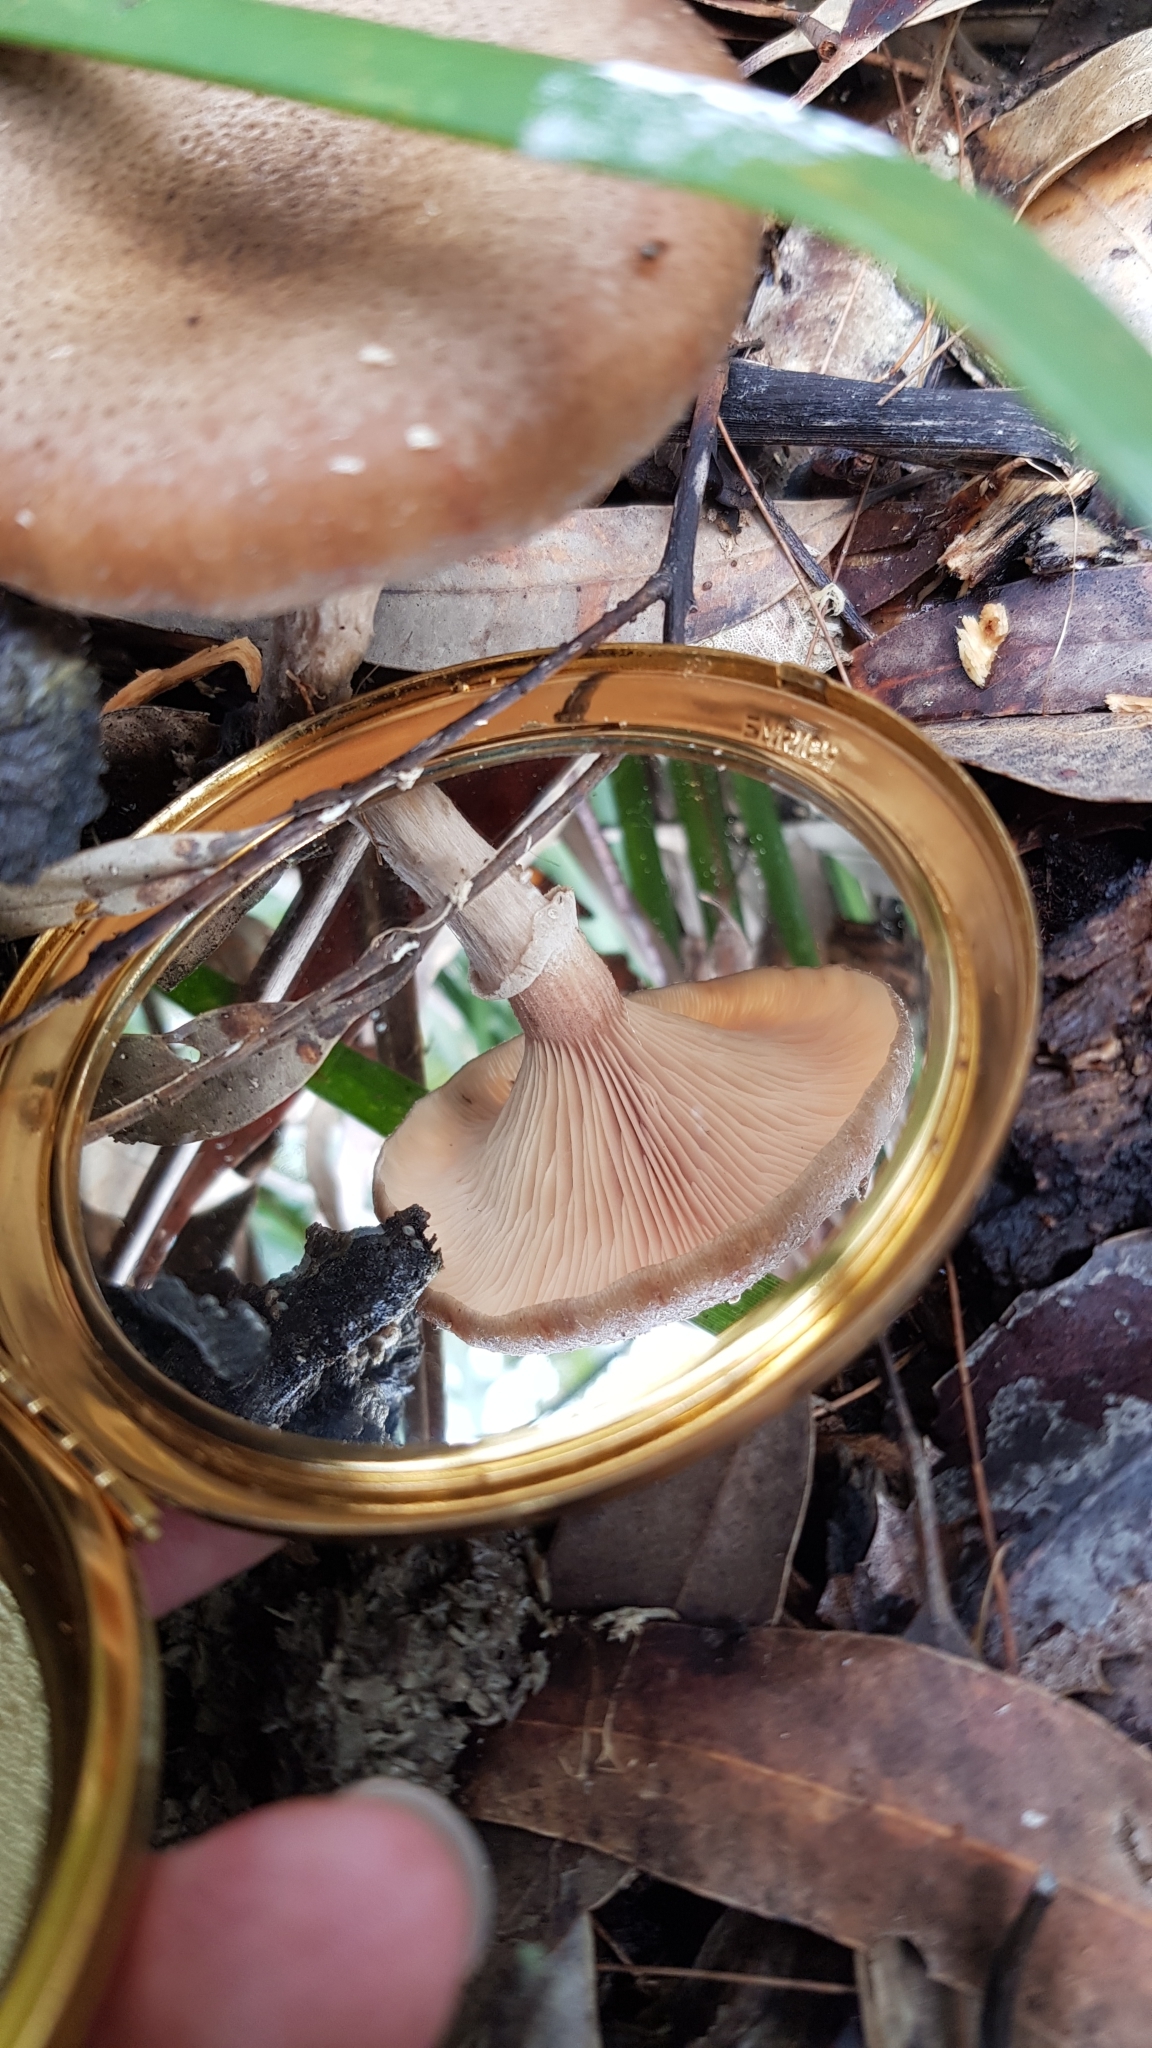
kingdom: Fungi
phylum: Basidiomycota
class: Agaricomycetes
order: Agaricales
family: Physalacriaceae
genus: Armillaria
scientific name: Armillaria novae-zelandiae
